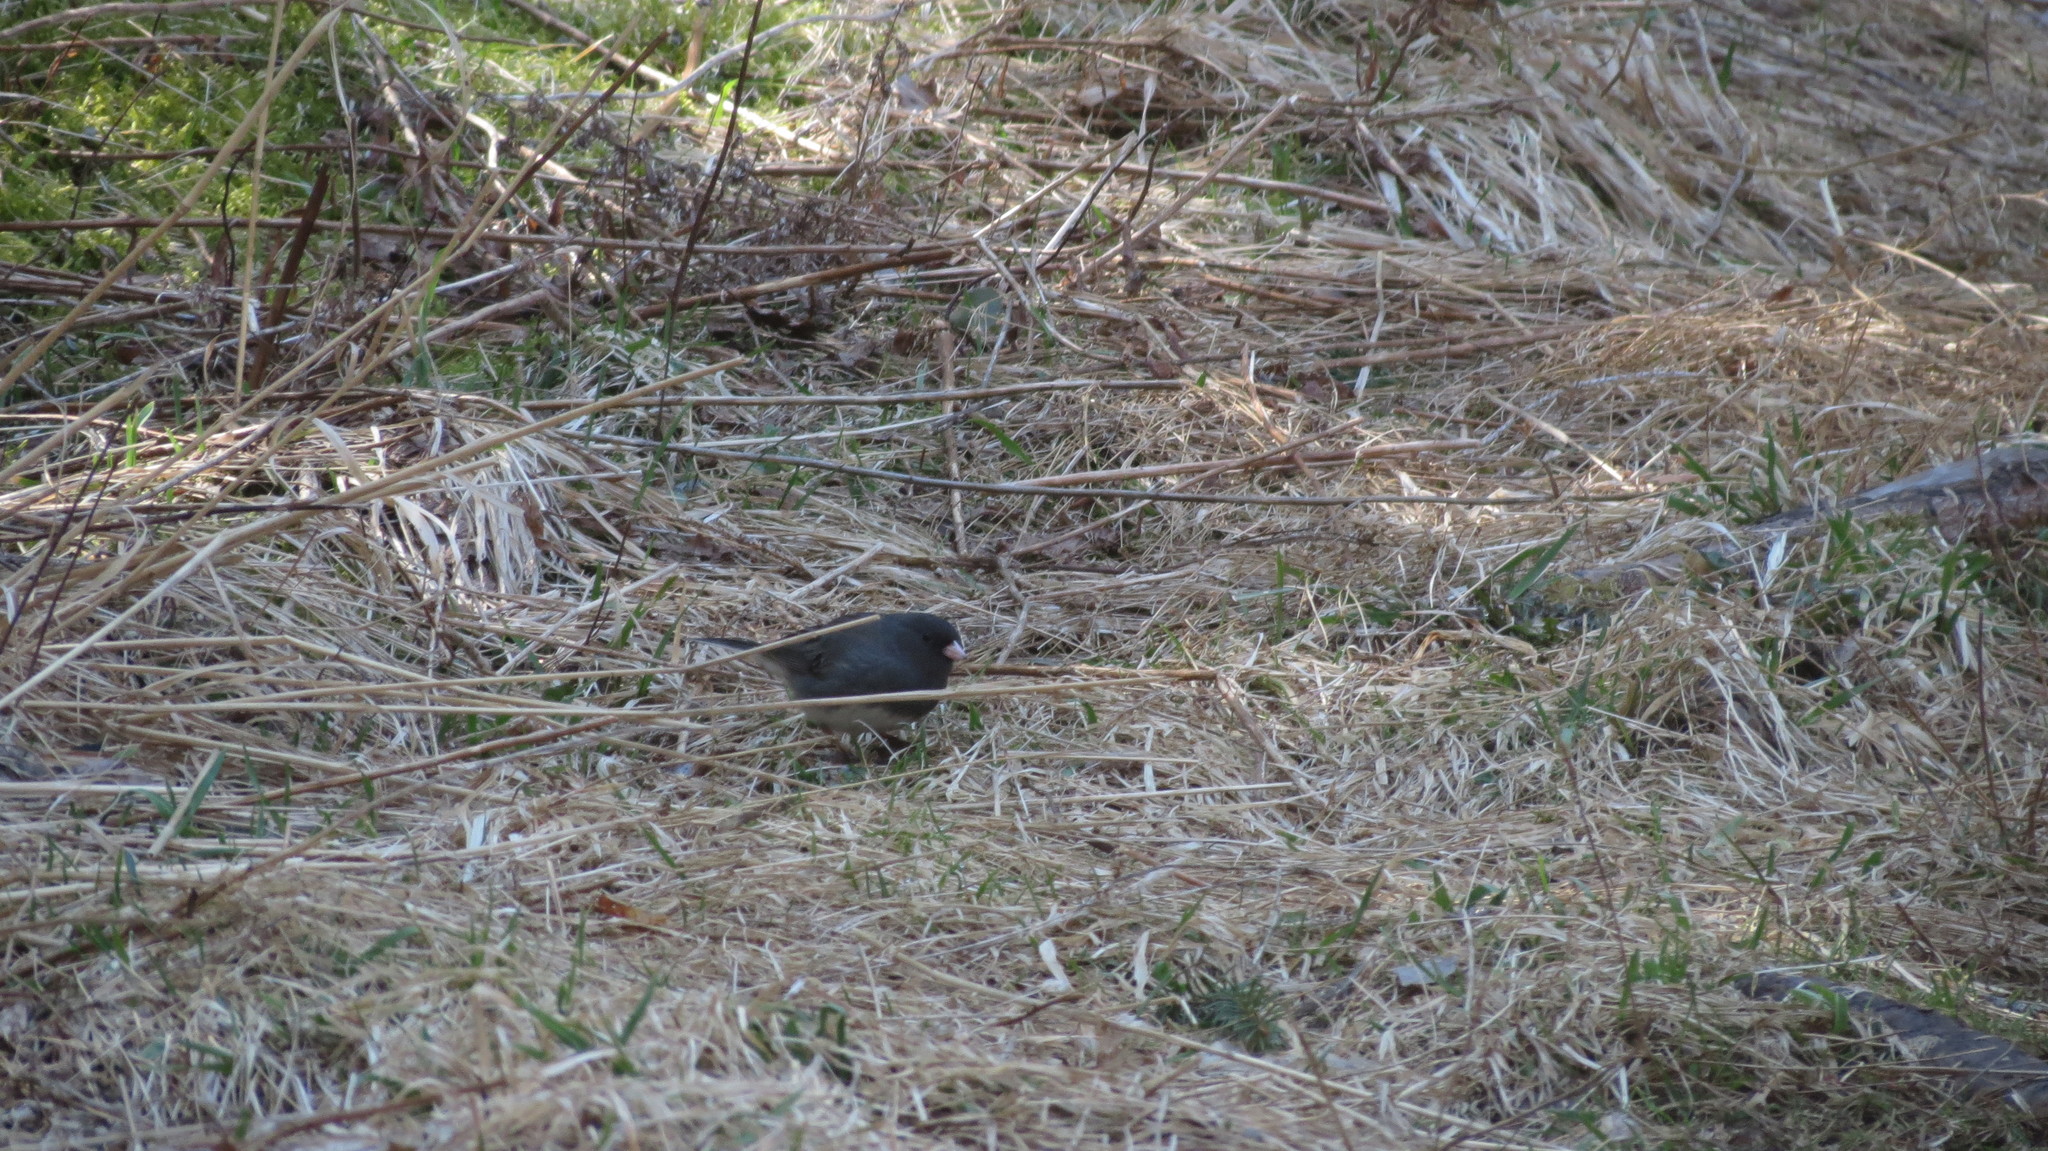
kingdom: Animalia
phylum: Chordata
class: Aves
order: Passeriformes
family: Passerellidae
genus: Junco
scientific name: Junco hyemalis
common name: Dark-eyed junco
